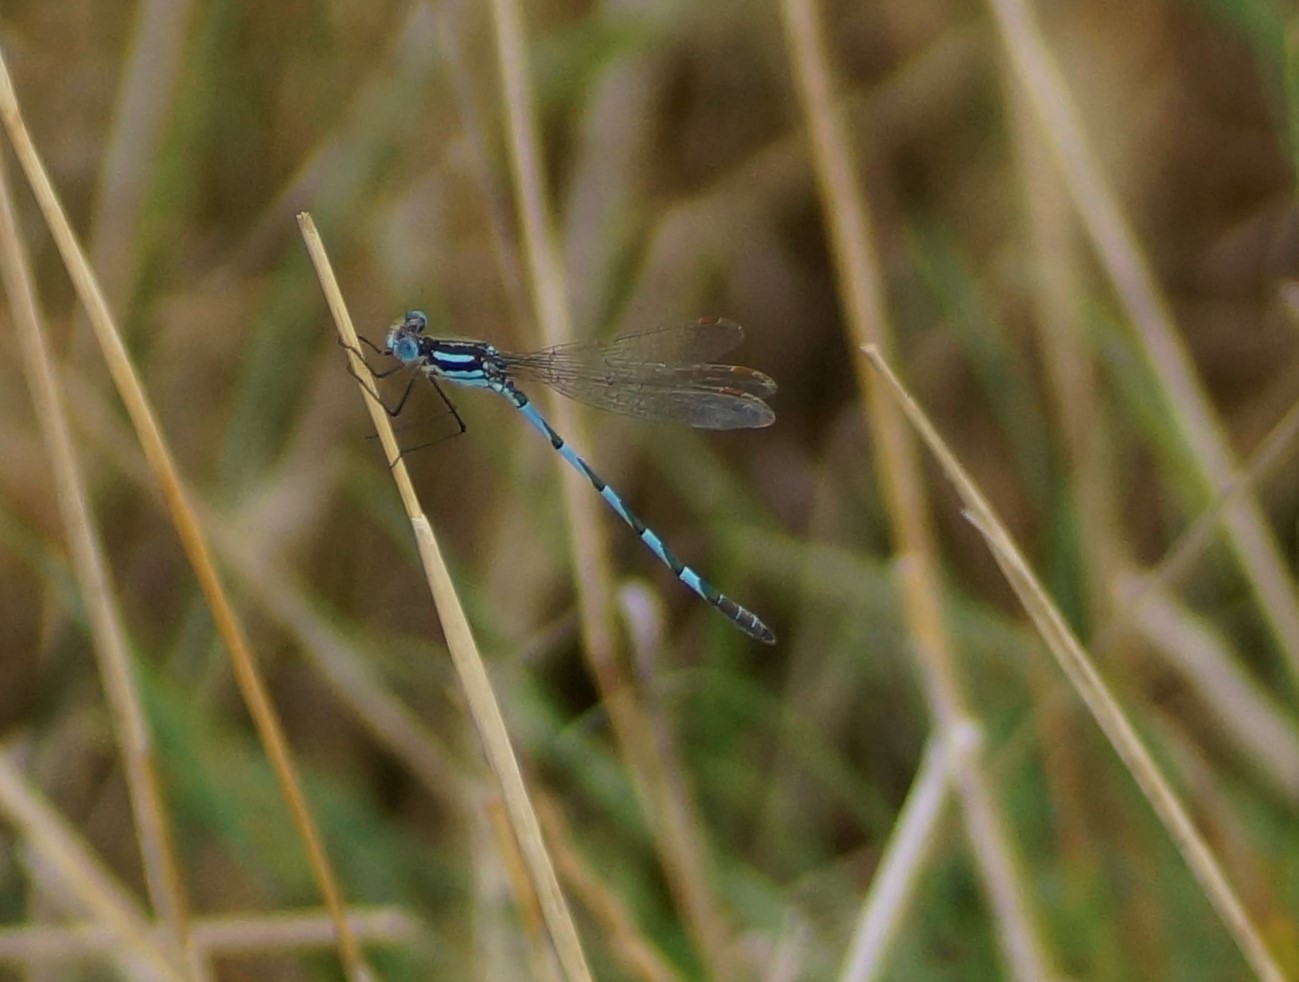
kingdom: Animalia
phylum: Arthropoda
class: Insecta
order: Odonata
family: Lestidae
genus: Austrolestes
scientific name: Austrolestes annulosus
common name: Blue ringtail
